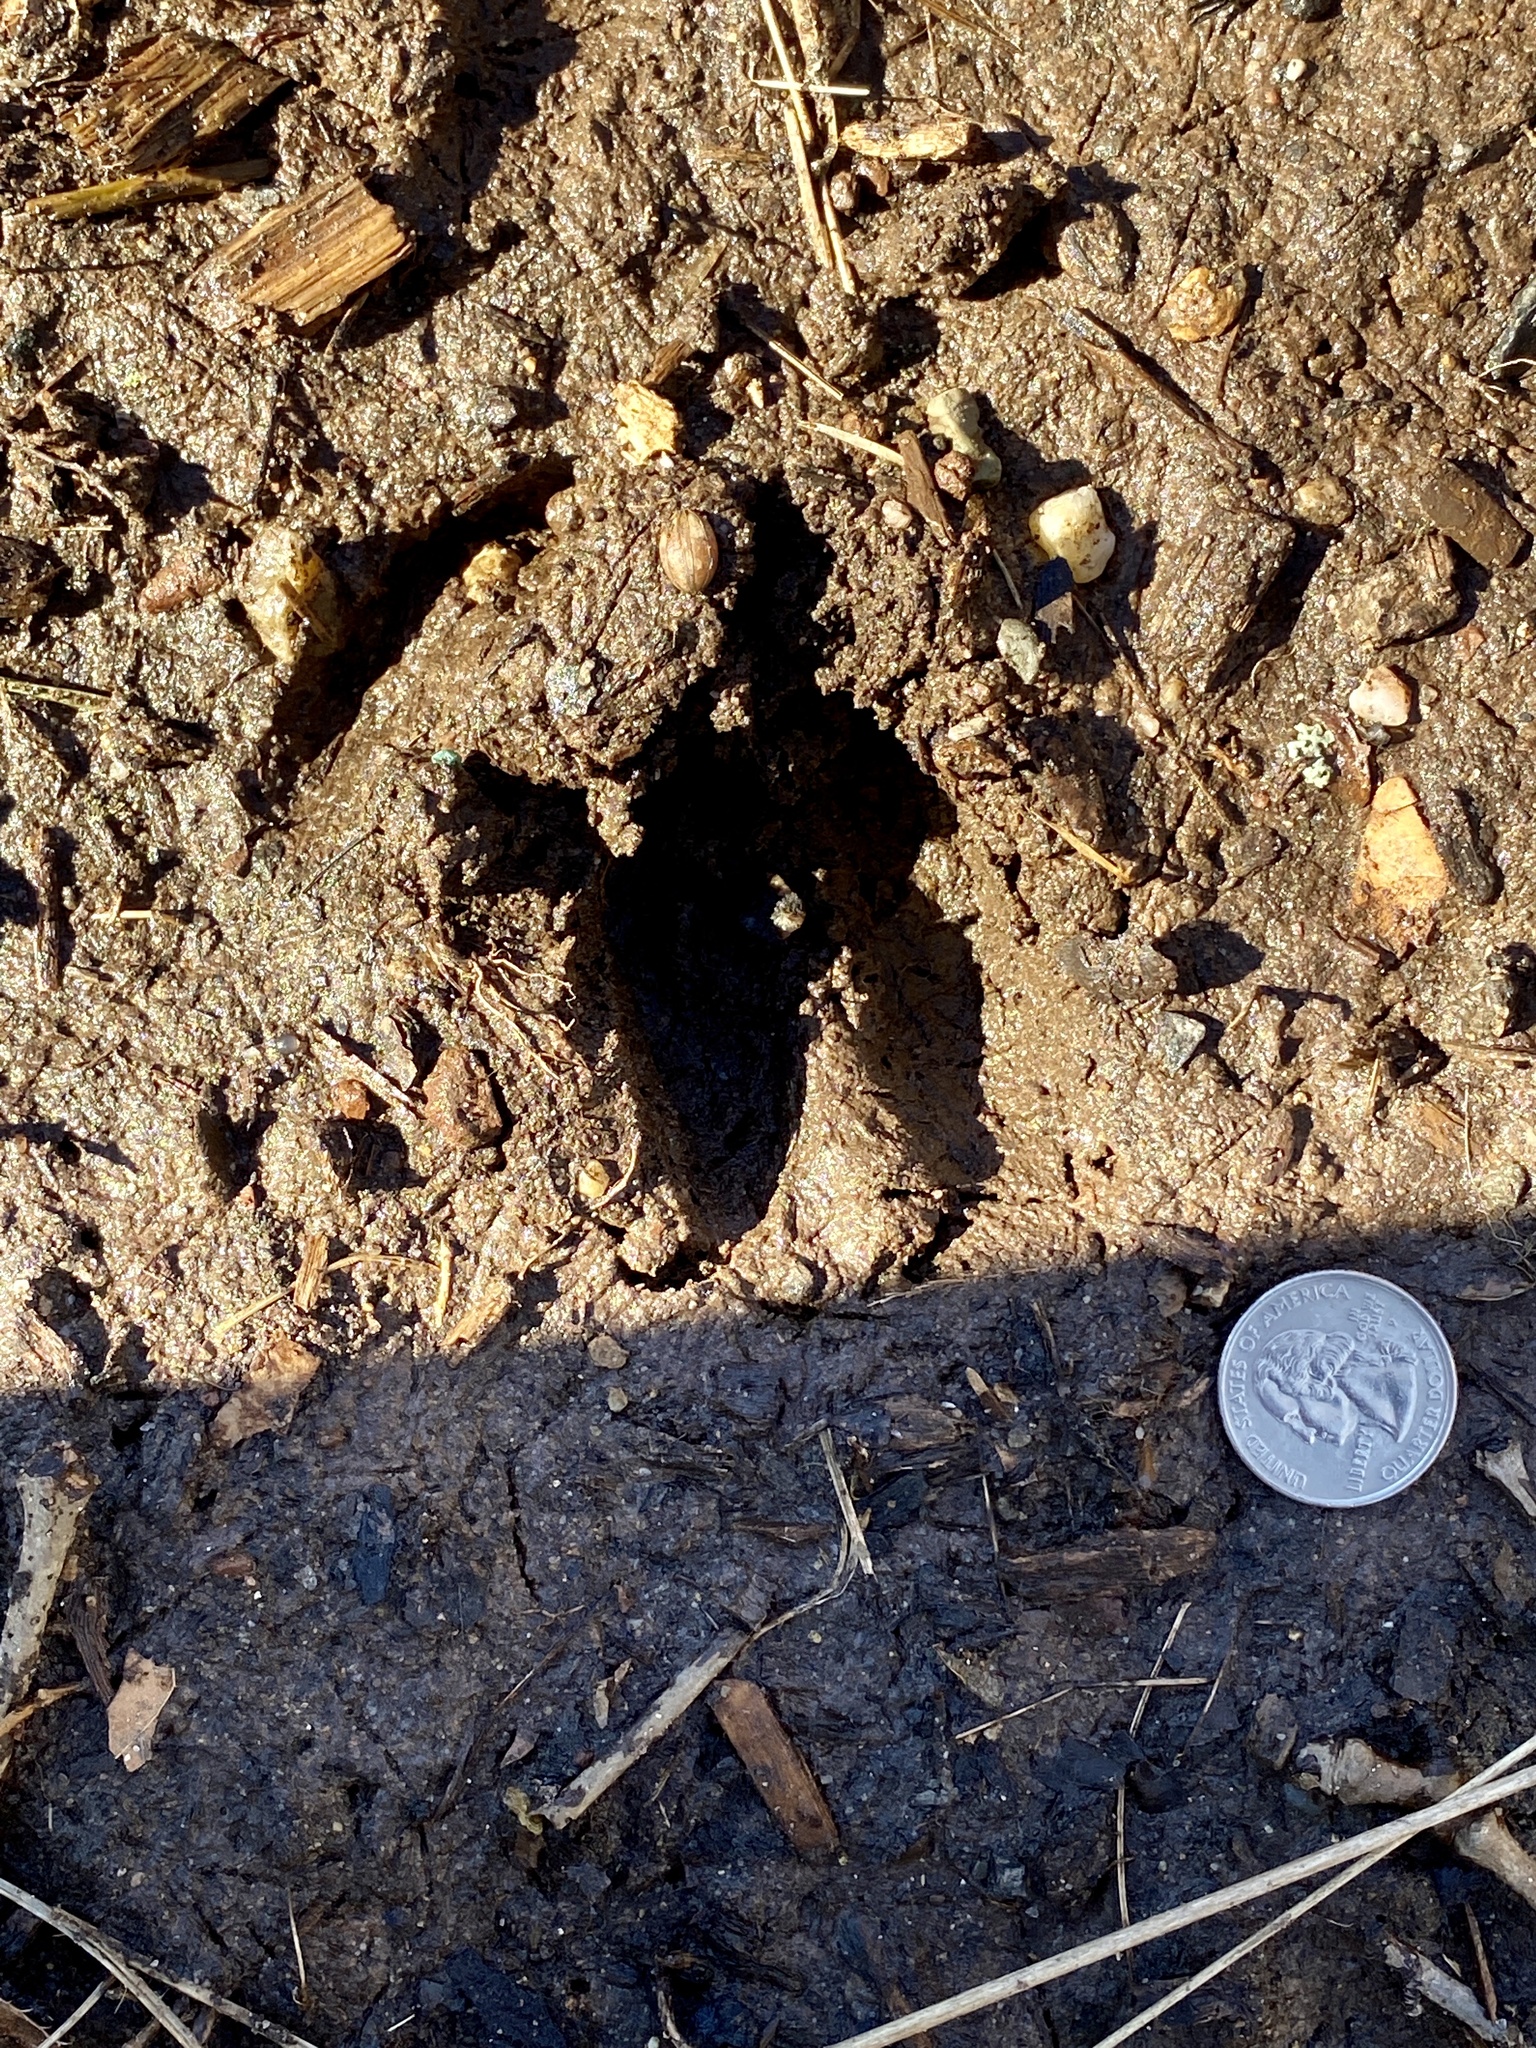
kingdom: Animalia
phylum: Chordata
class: Mammalia
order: Artiodactyla
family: Cervidae
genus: Odocoileus
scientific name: Odocoileus virginianus
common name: White-tailed deer
